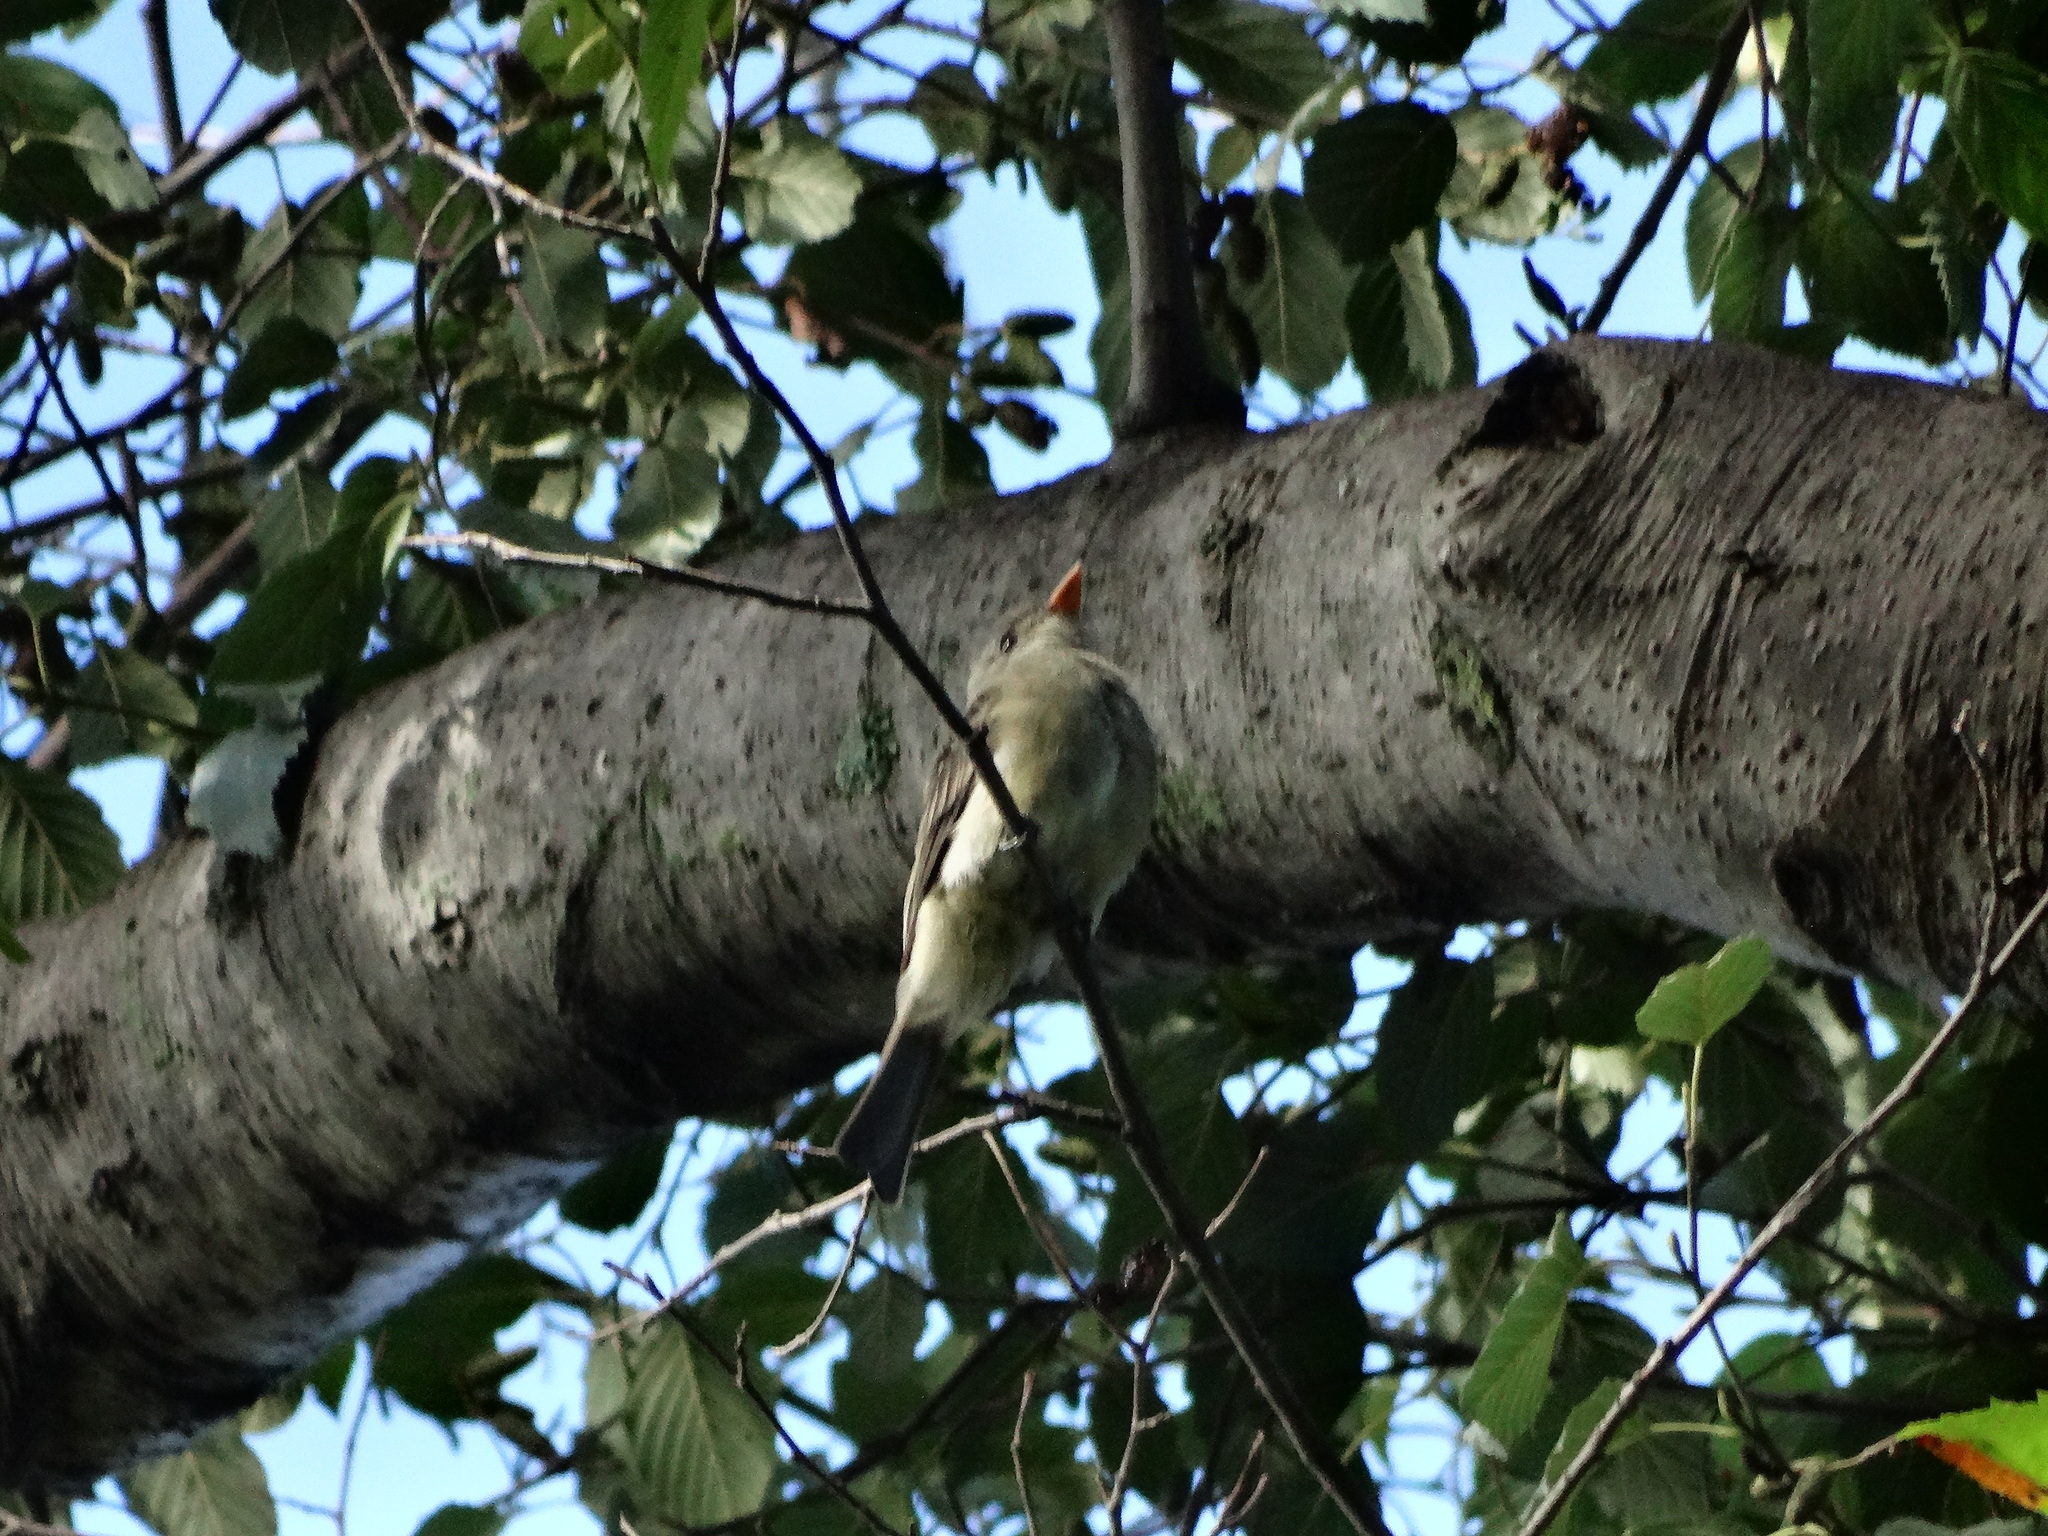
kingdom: Animalia
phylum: Chordata
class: Aves
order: Passeriformes
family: Tyrannidae
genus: Contopus
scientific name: Contopus pertinax
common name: Greater pewee
